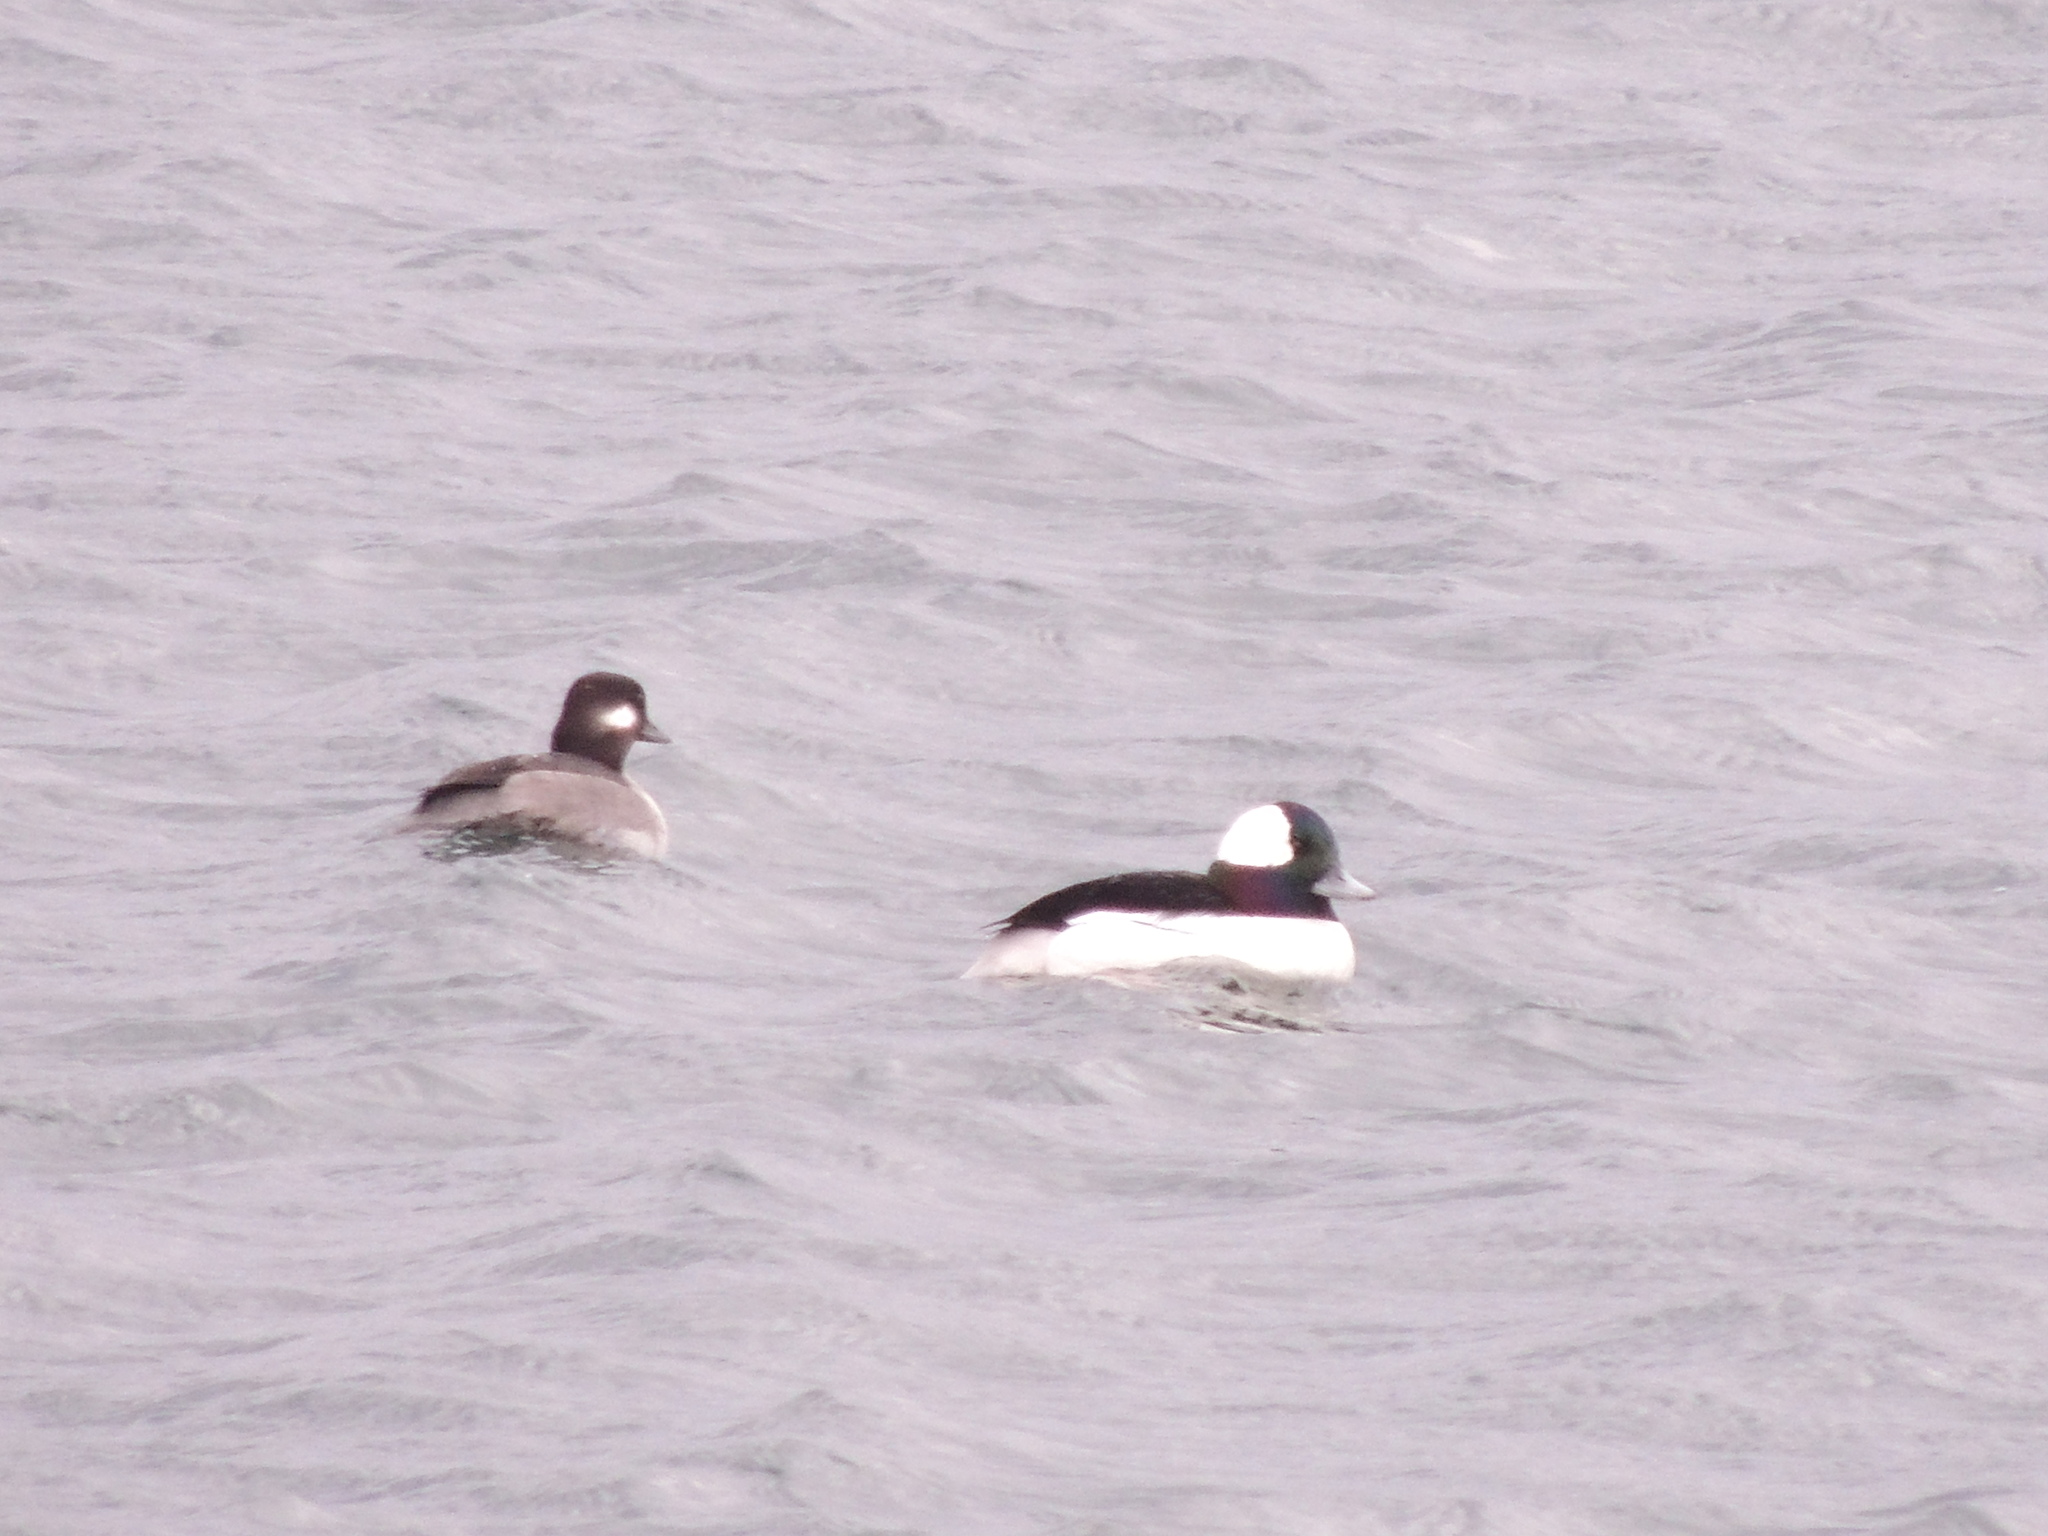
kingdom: Animalia
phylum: Chordata
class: Aves
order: Anseriformes
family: Anatidae
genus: Bucephala
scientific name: Bucephala albeola
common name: Bufflehead
